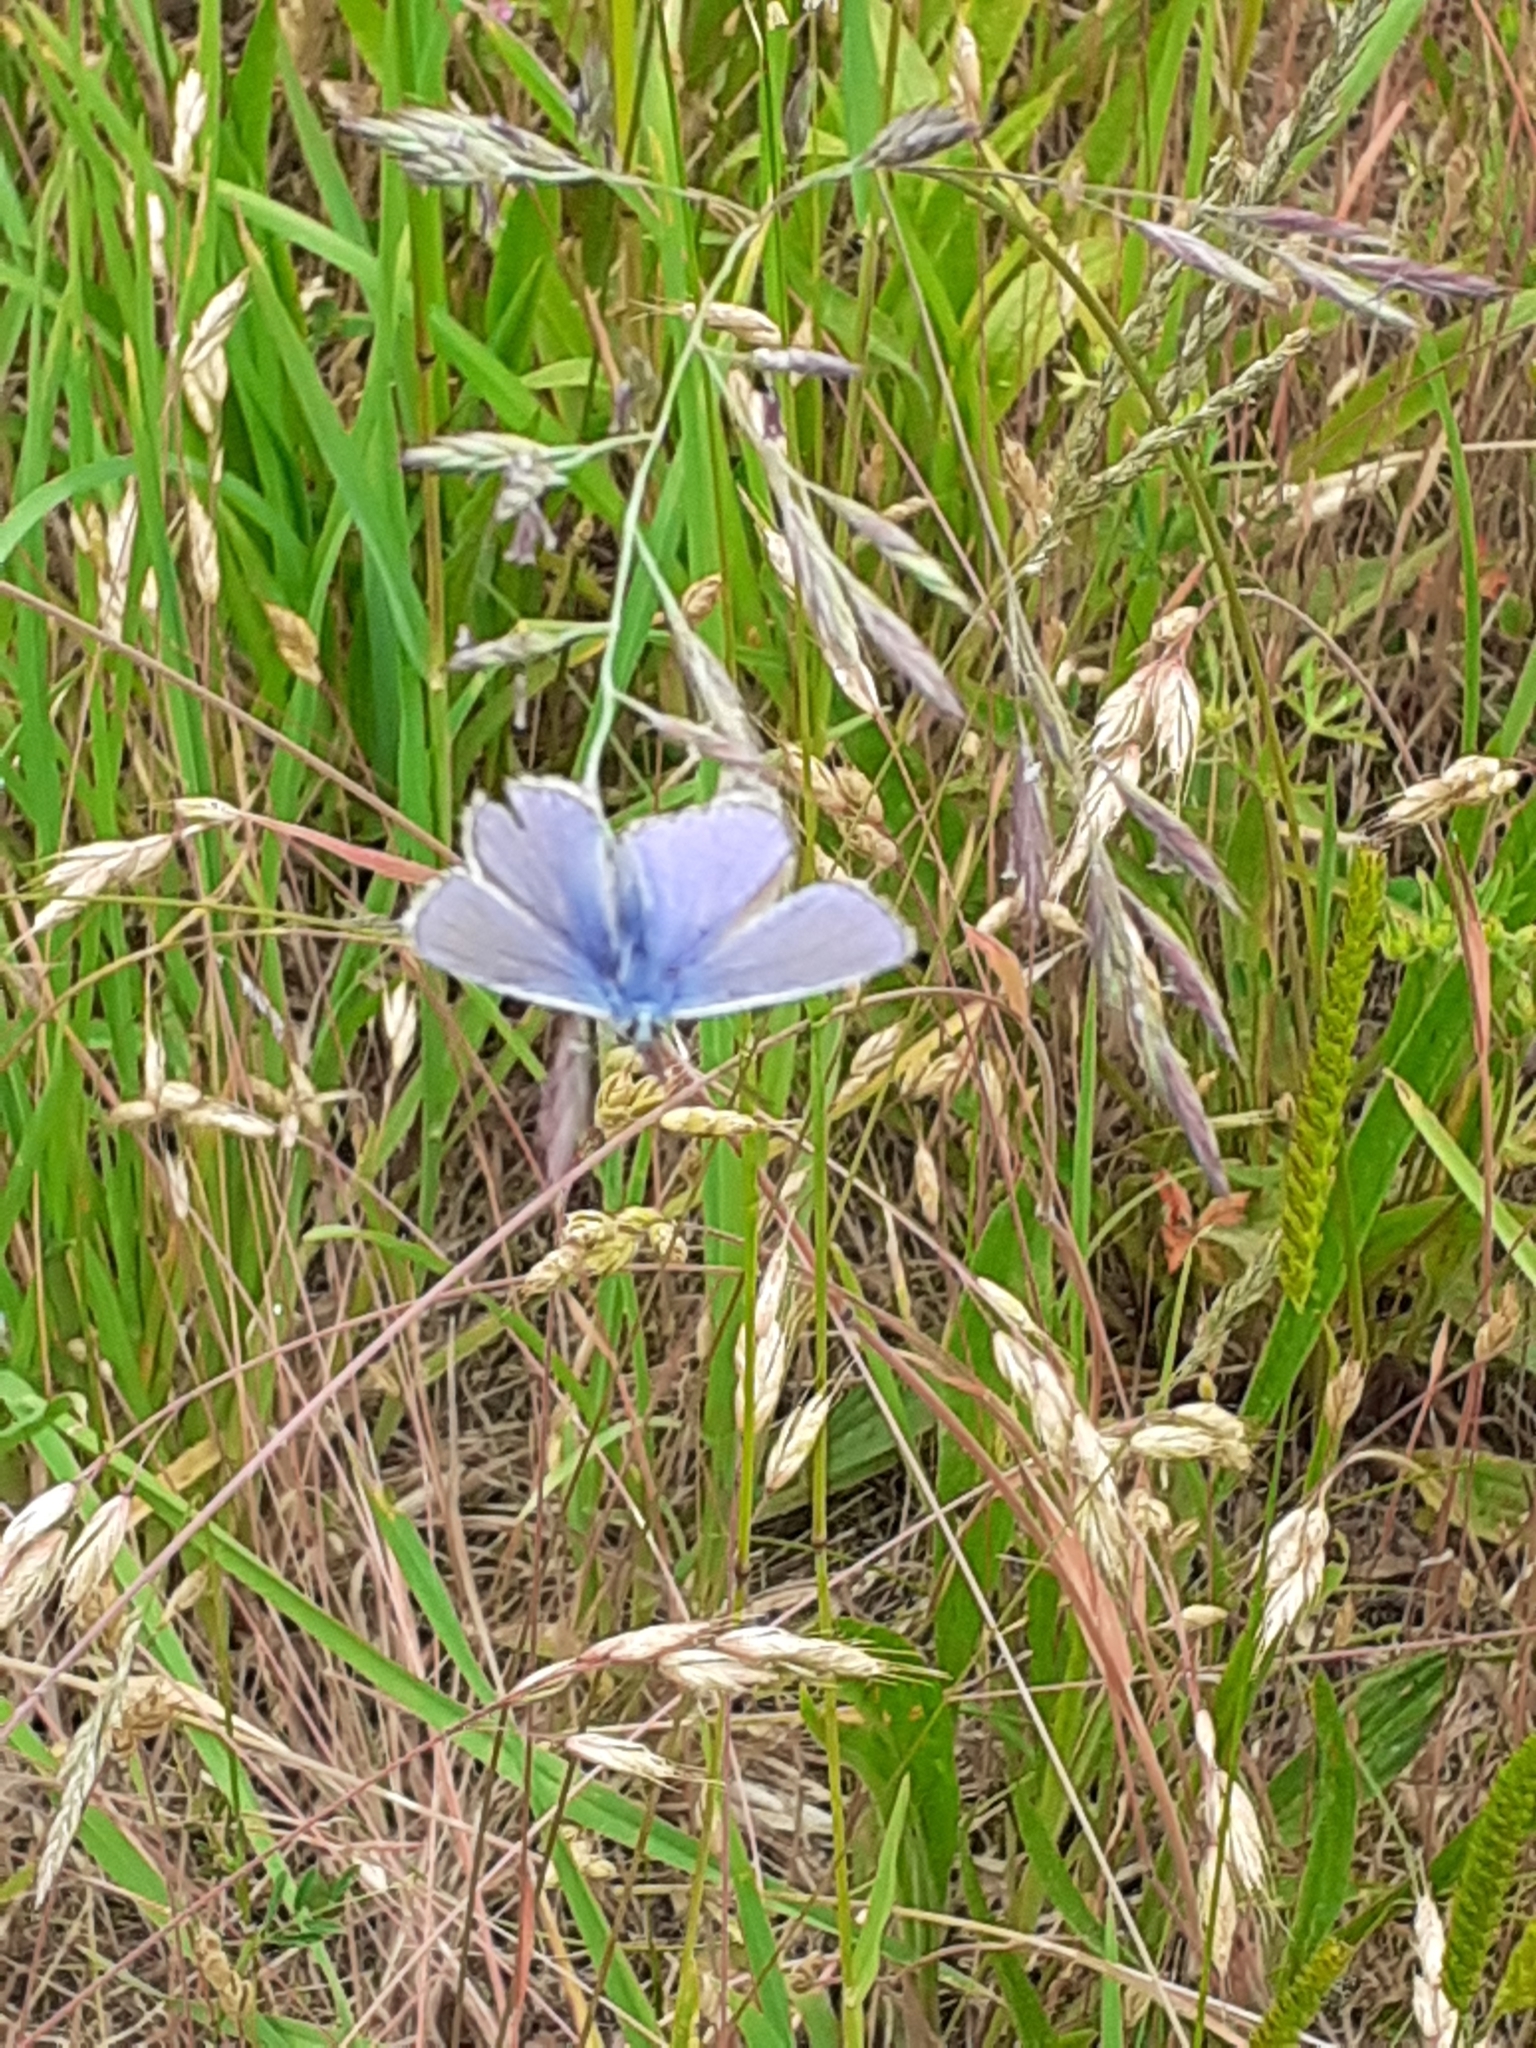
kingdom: Animalia
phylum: Arthropoda
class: Insecta
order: Lepidoptera
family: Lycaenidae
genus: Polyommatus
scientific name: Polyommatus icarus
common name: Common blue
